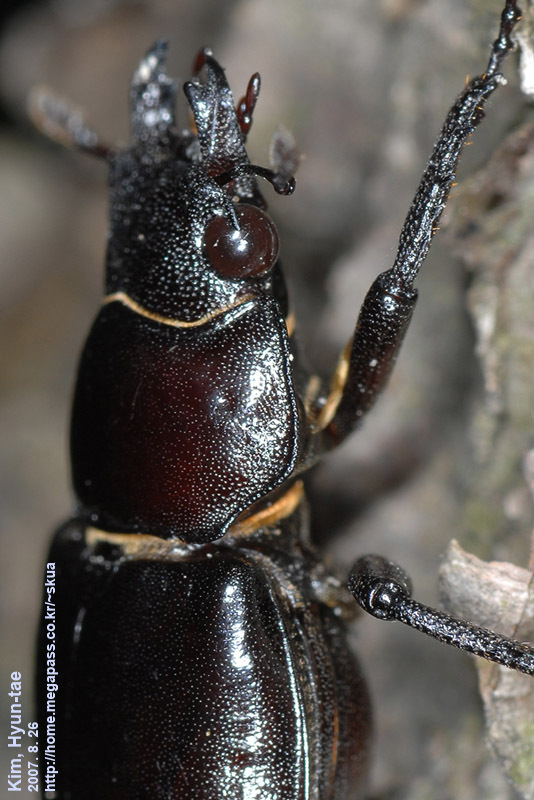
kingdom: Animalia
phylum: Arthropoda
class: Insecta
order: Coleoptera
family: Lucanidae
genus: Prismognathus
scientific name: Prismognathus dauricus
